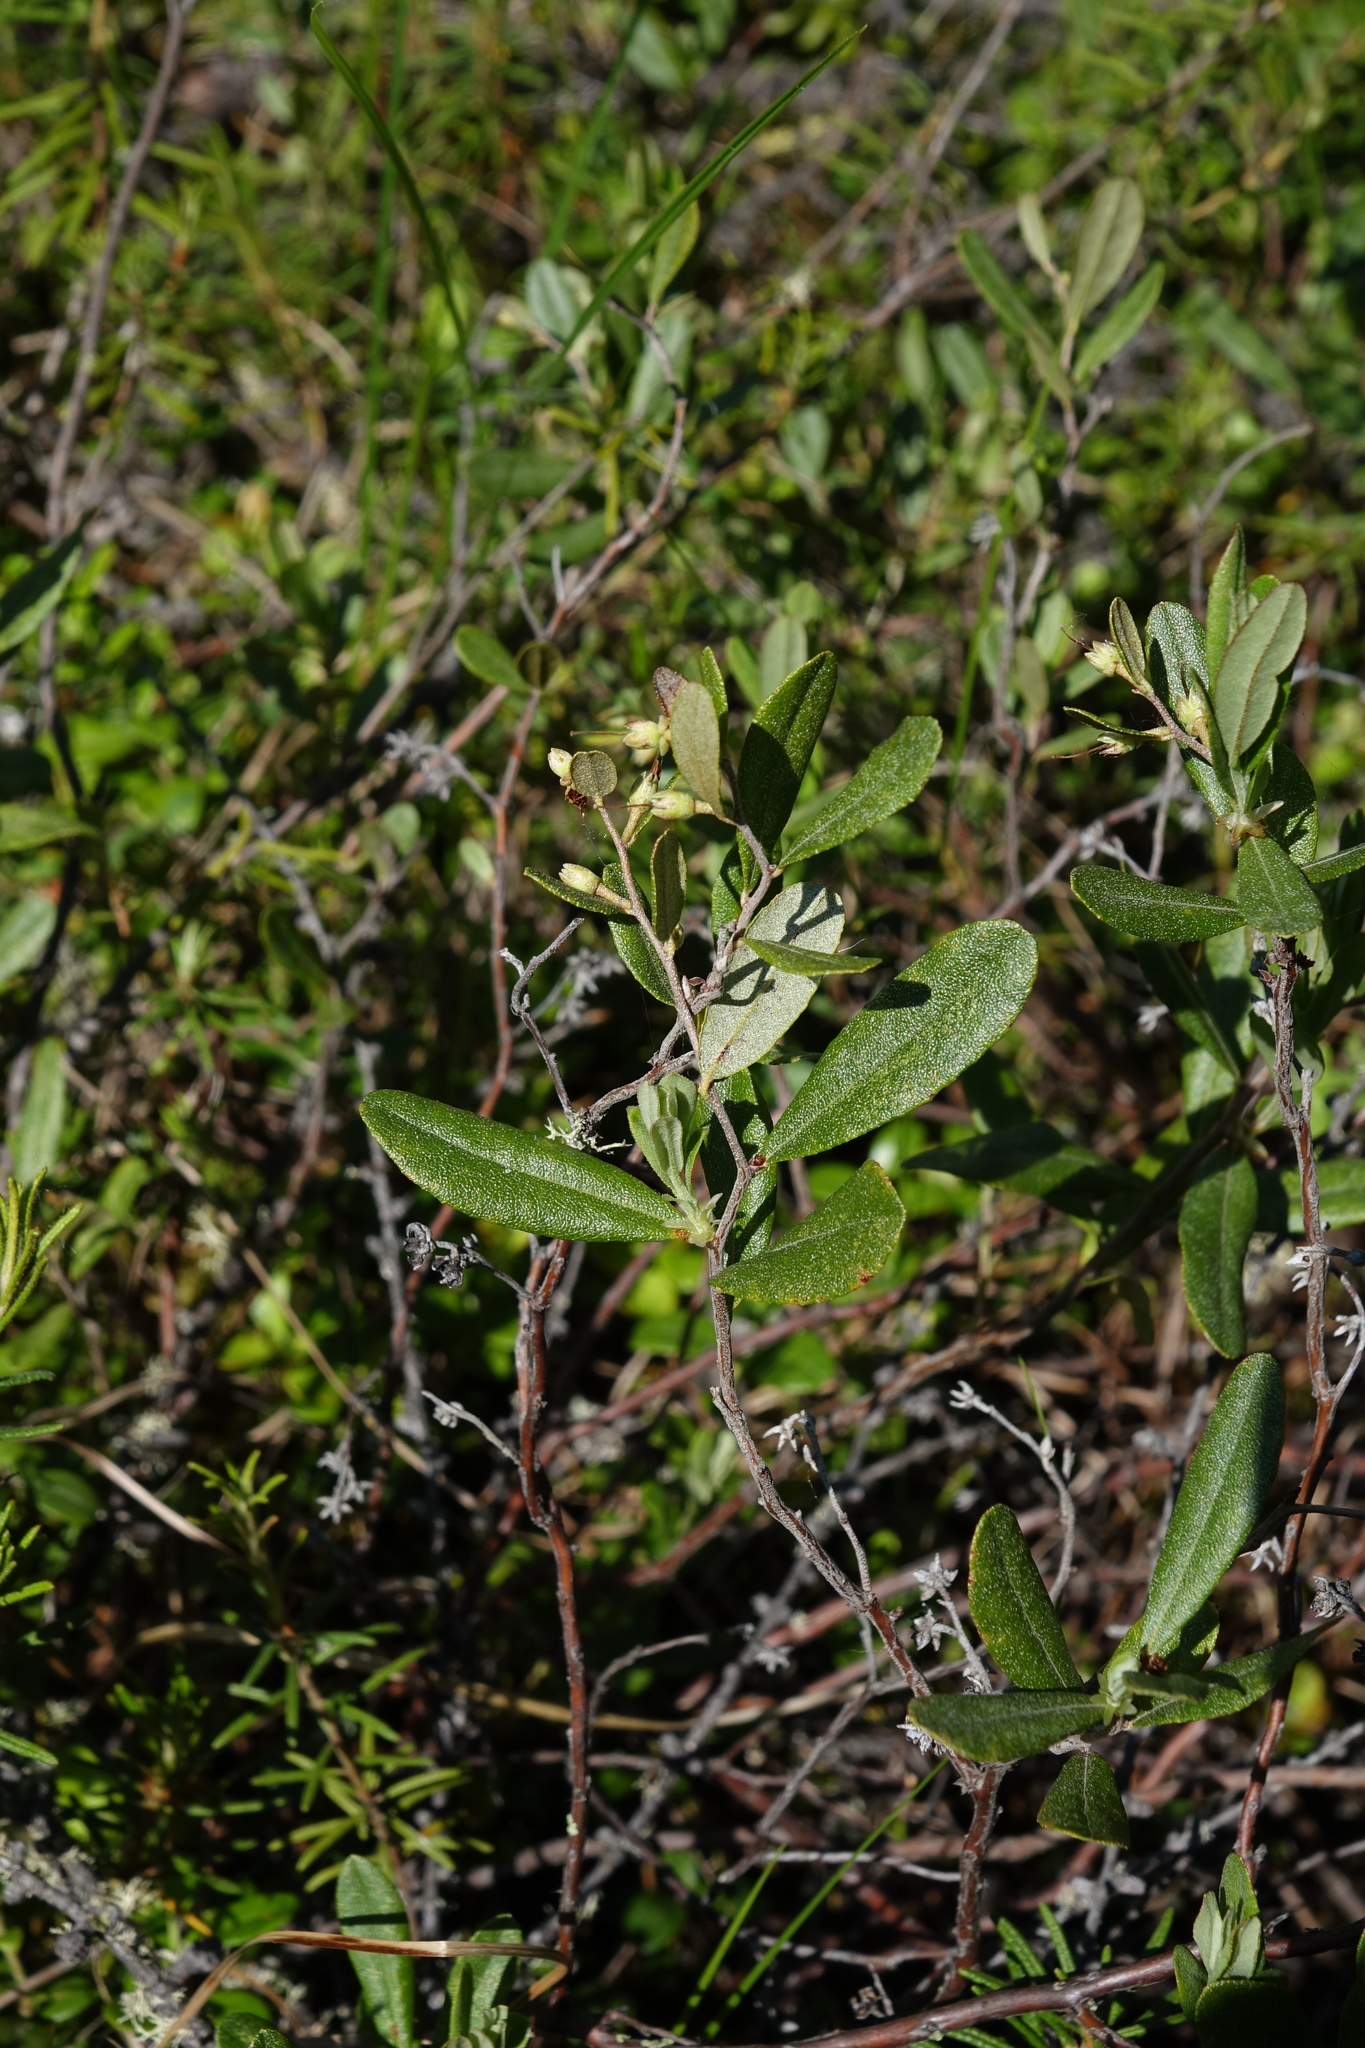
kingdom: Plantae
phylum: Tracheophyta
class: Magnoliopsida
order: Ericales
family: Ericaceae
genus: Chamaedaphne
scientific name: Chamaedaphne calyculata
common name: Leatherleaf
